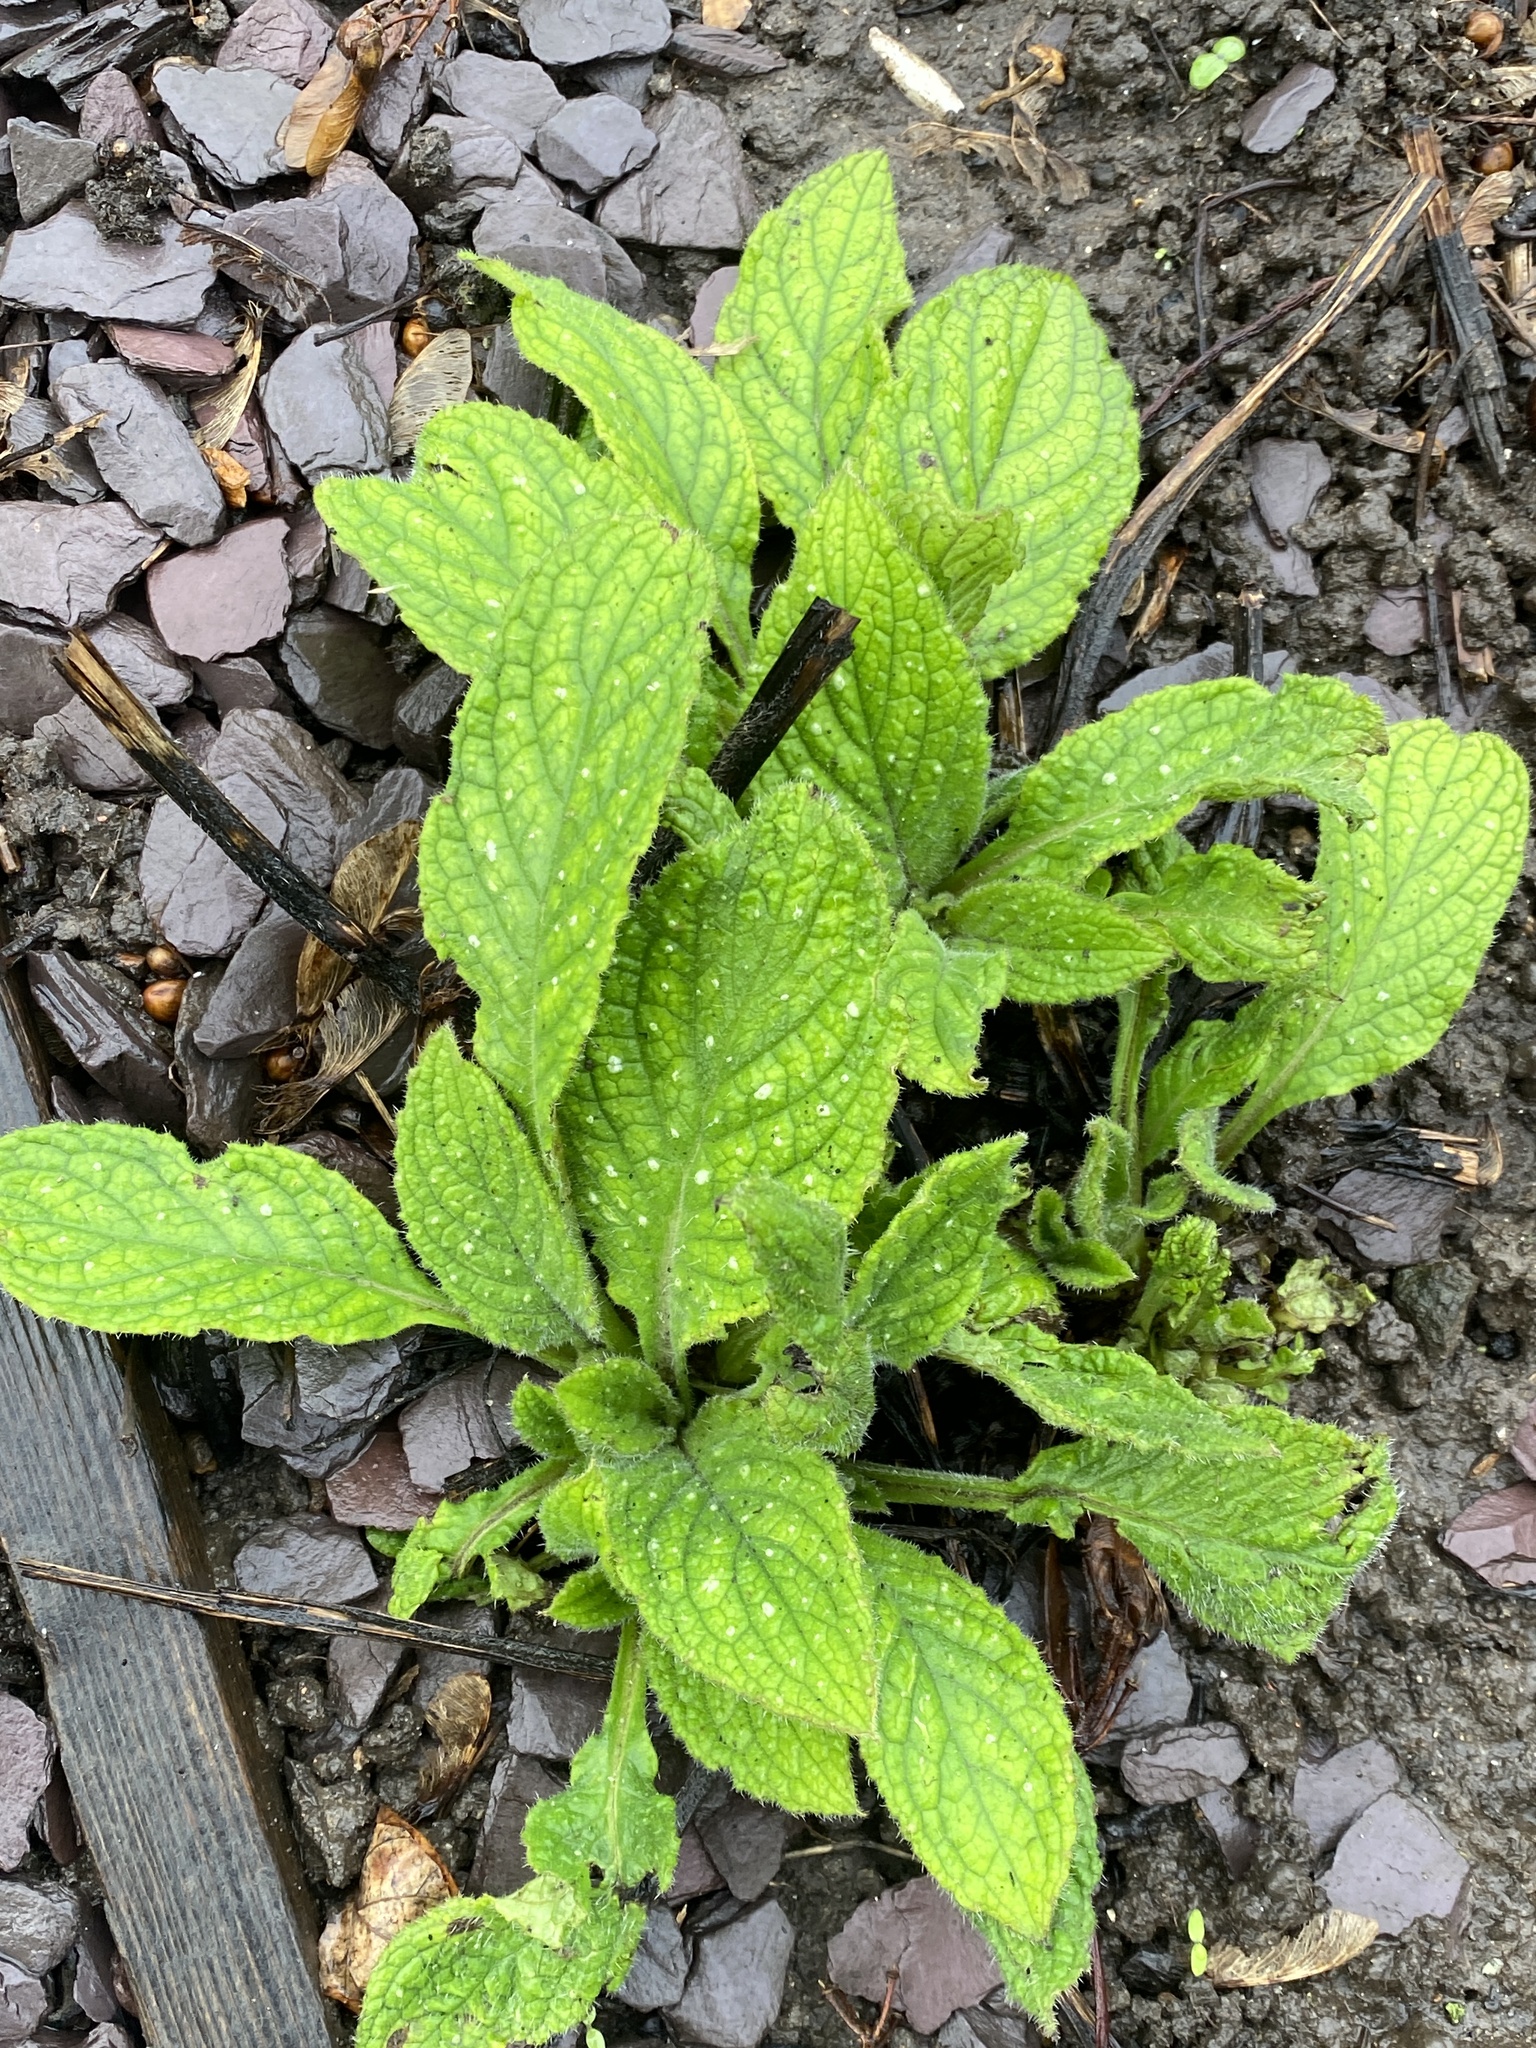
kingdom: Plantae
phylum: Tracheophyta
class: Magnoliopsida
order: Boraginales
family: Boraginaceae
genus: Pentaglottis
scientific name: Pentaglottis sempervirens
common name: Green alkanet
